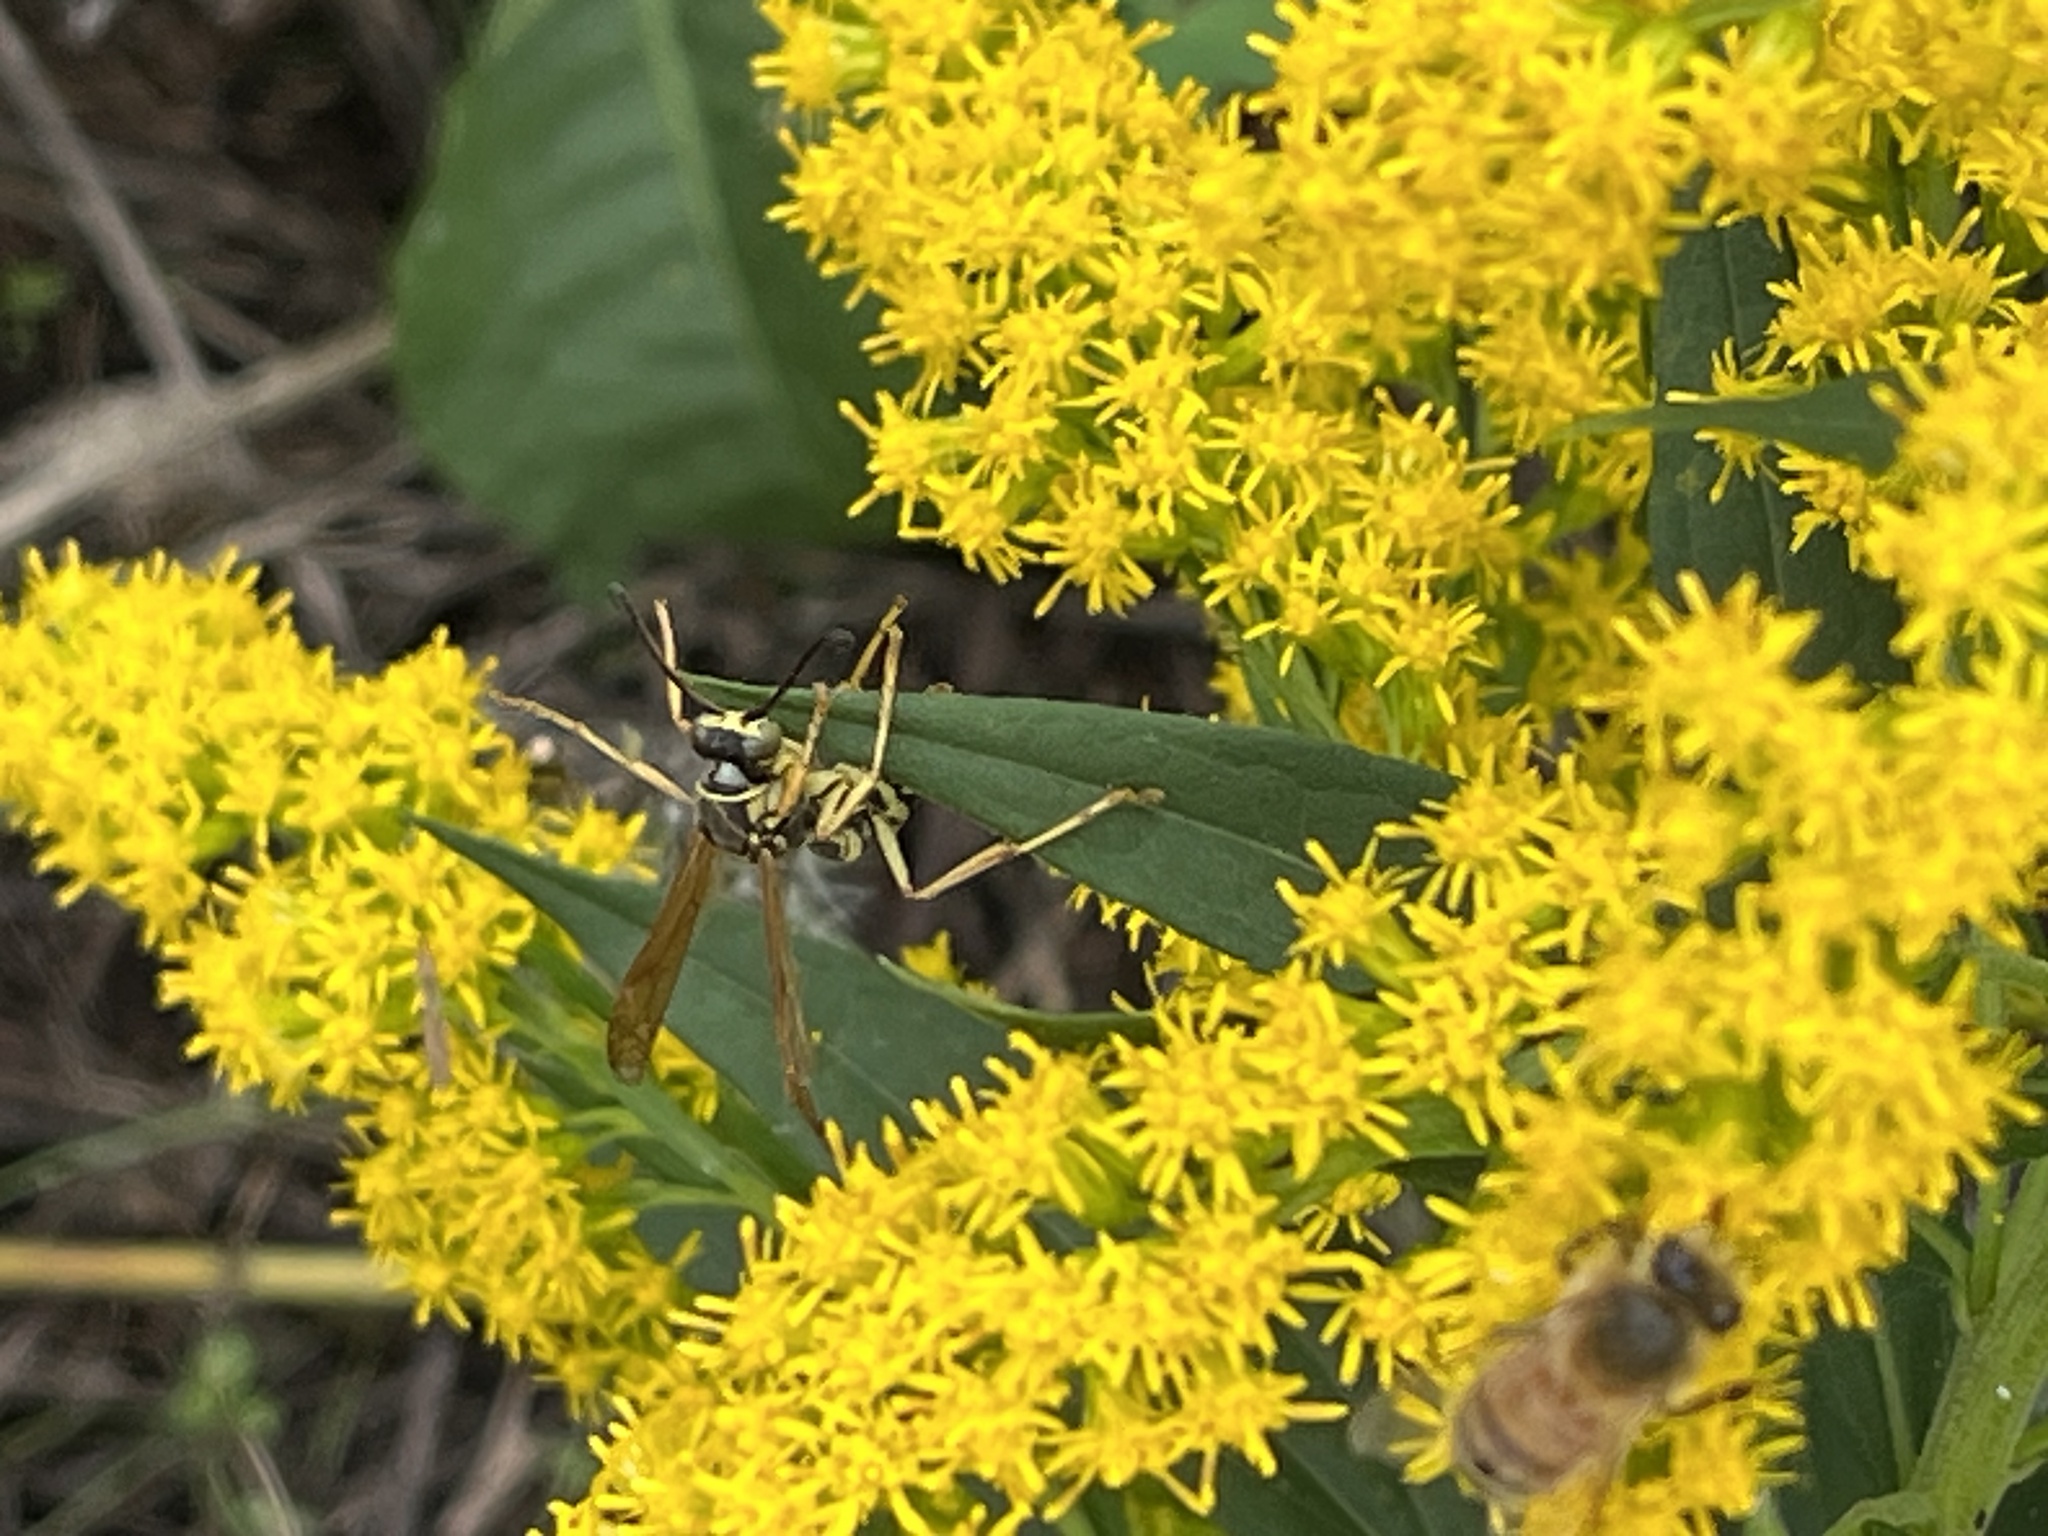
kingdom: Animalia
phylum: Arthropoda
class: Insecta
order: Hymenoptera
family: Eumenidae
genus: Polistes
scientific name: Polistes fuscatus
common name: Dark paper wasp
